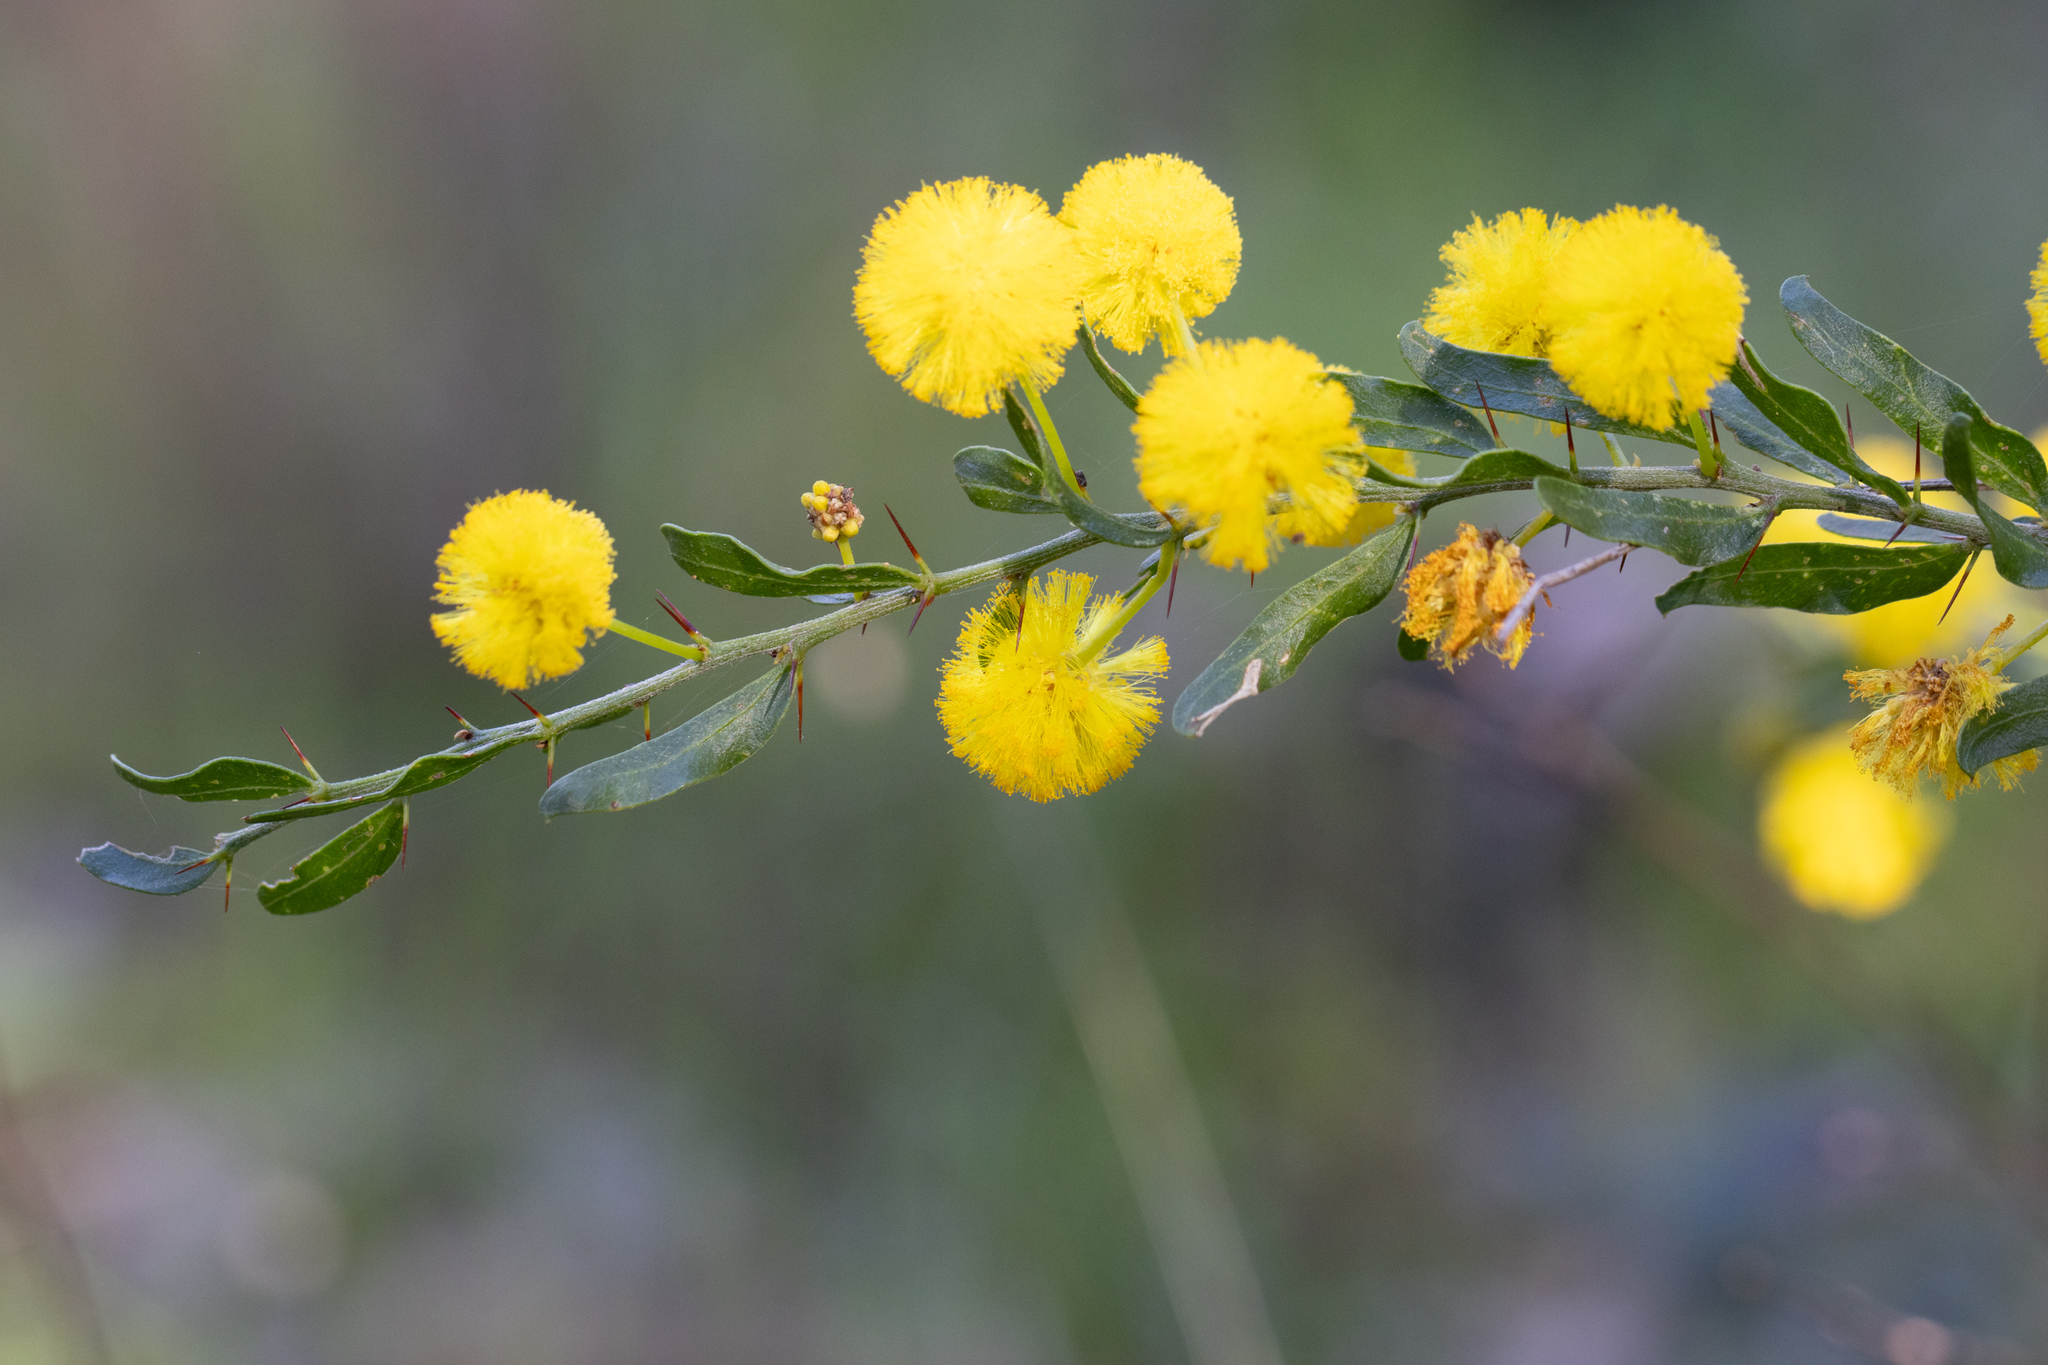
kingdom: Plantae
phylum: Tracheophyta
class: Magnoliopsida
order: Fabales
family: Fabaceae
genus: Acacia
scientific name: Acacia paradoxa
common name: Paradox acacia
